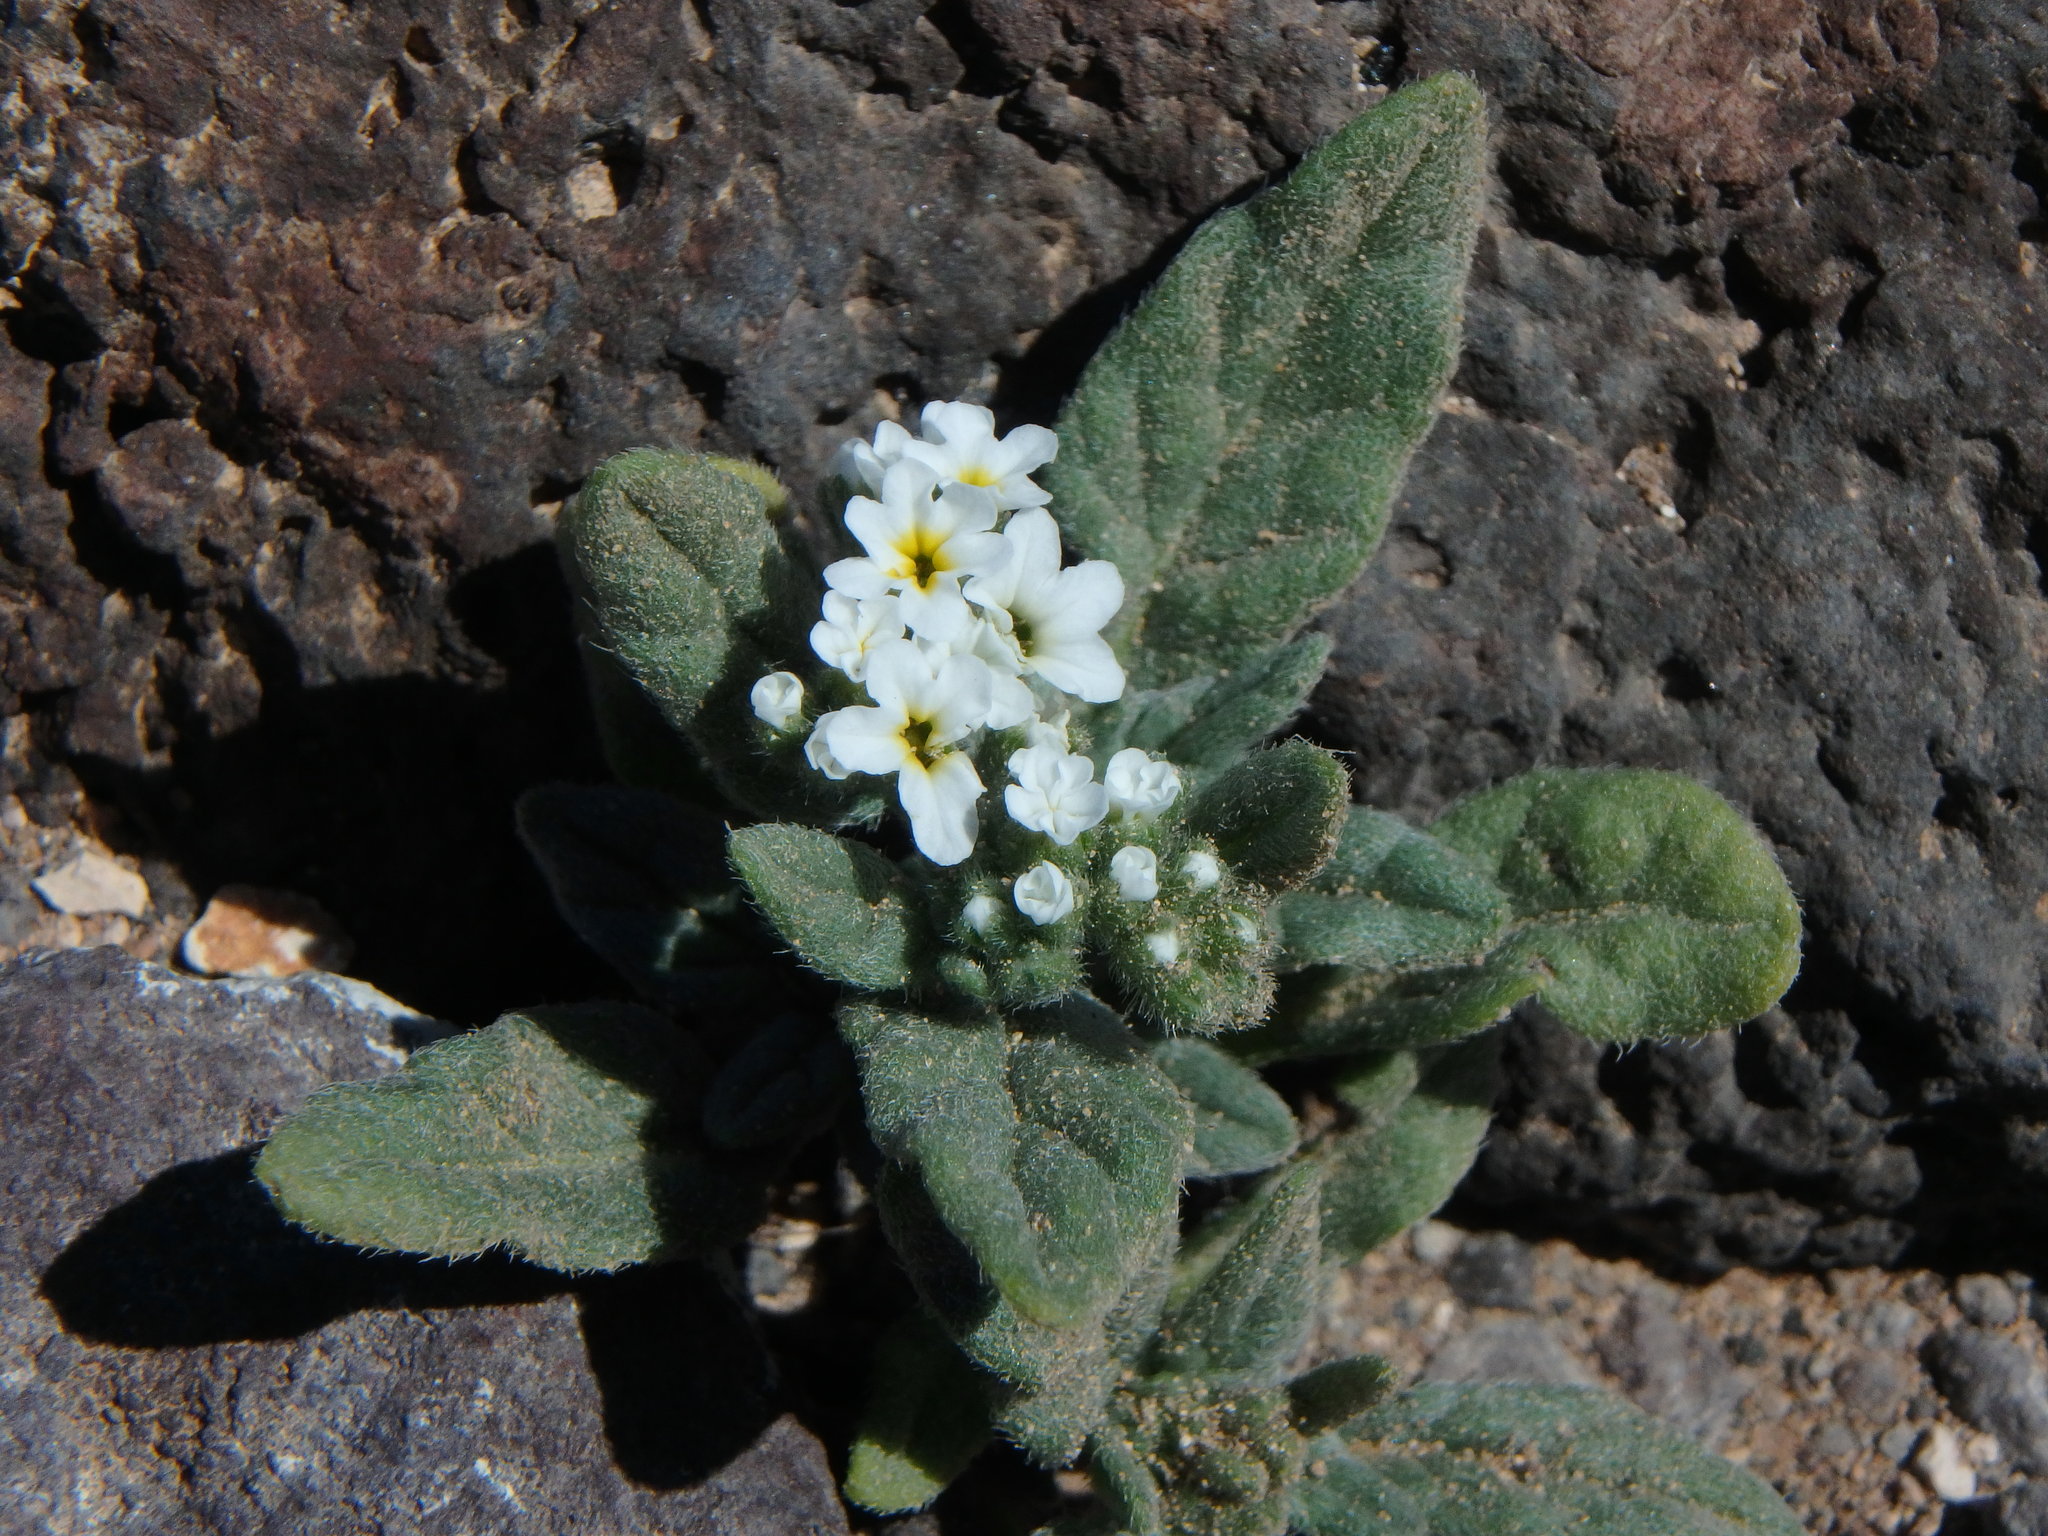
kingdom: Plantae
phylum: Tracheophyta
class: Magnoliopsida
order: Boraginales
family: Heliotropiaceae
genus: Heliotropium
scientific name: Heliotropium ramosissimum
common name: Wavy heliotrope
